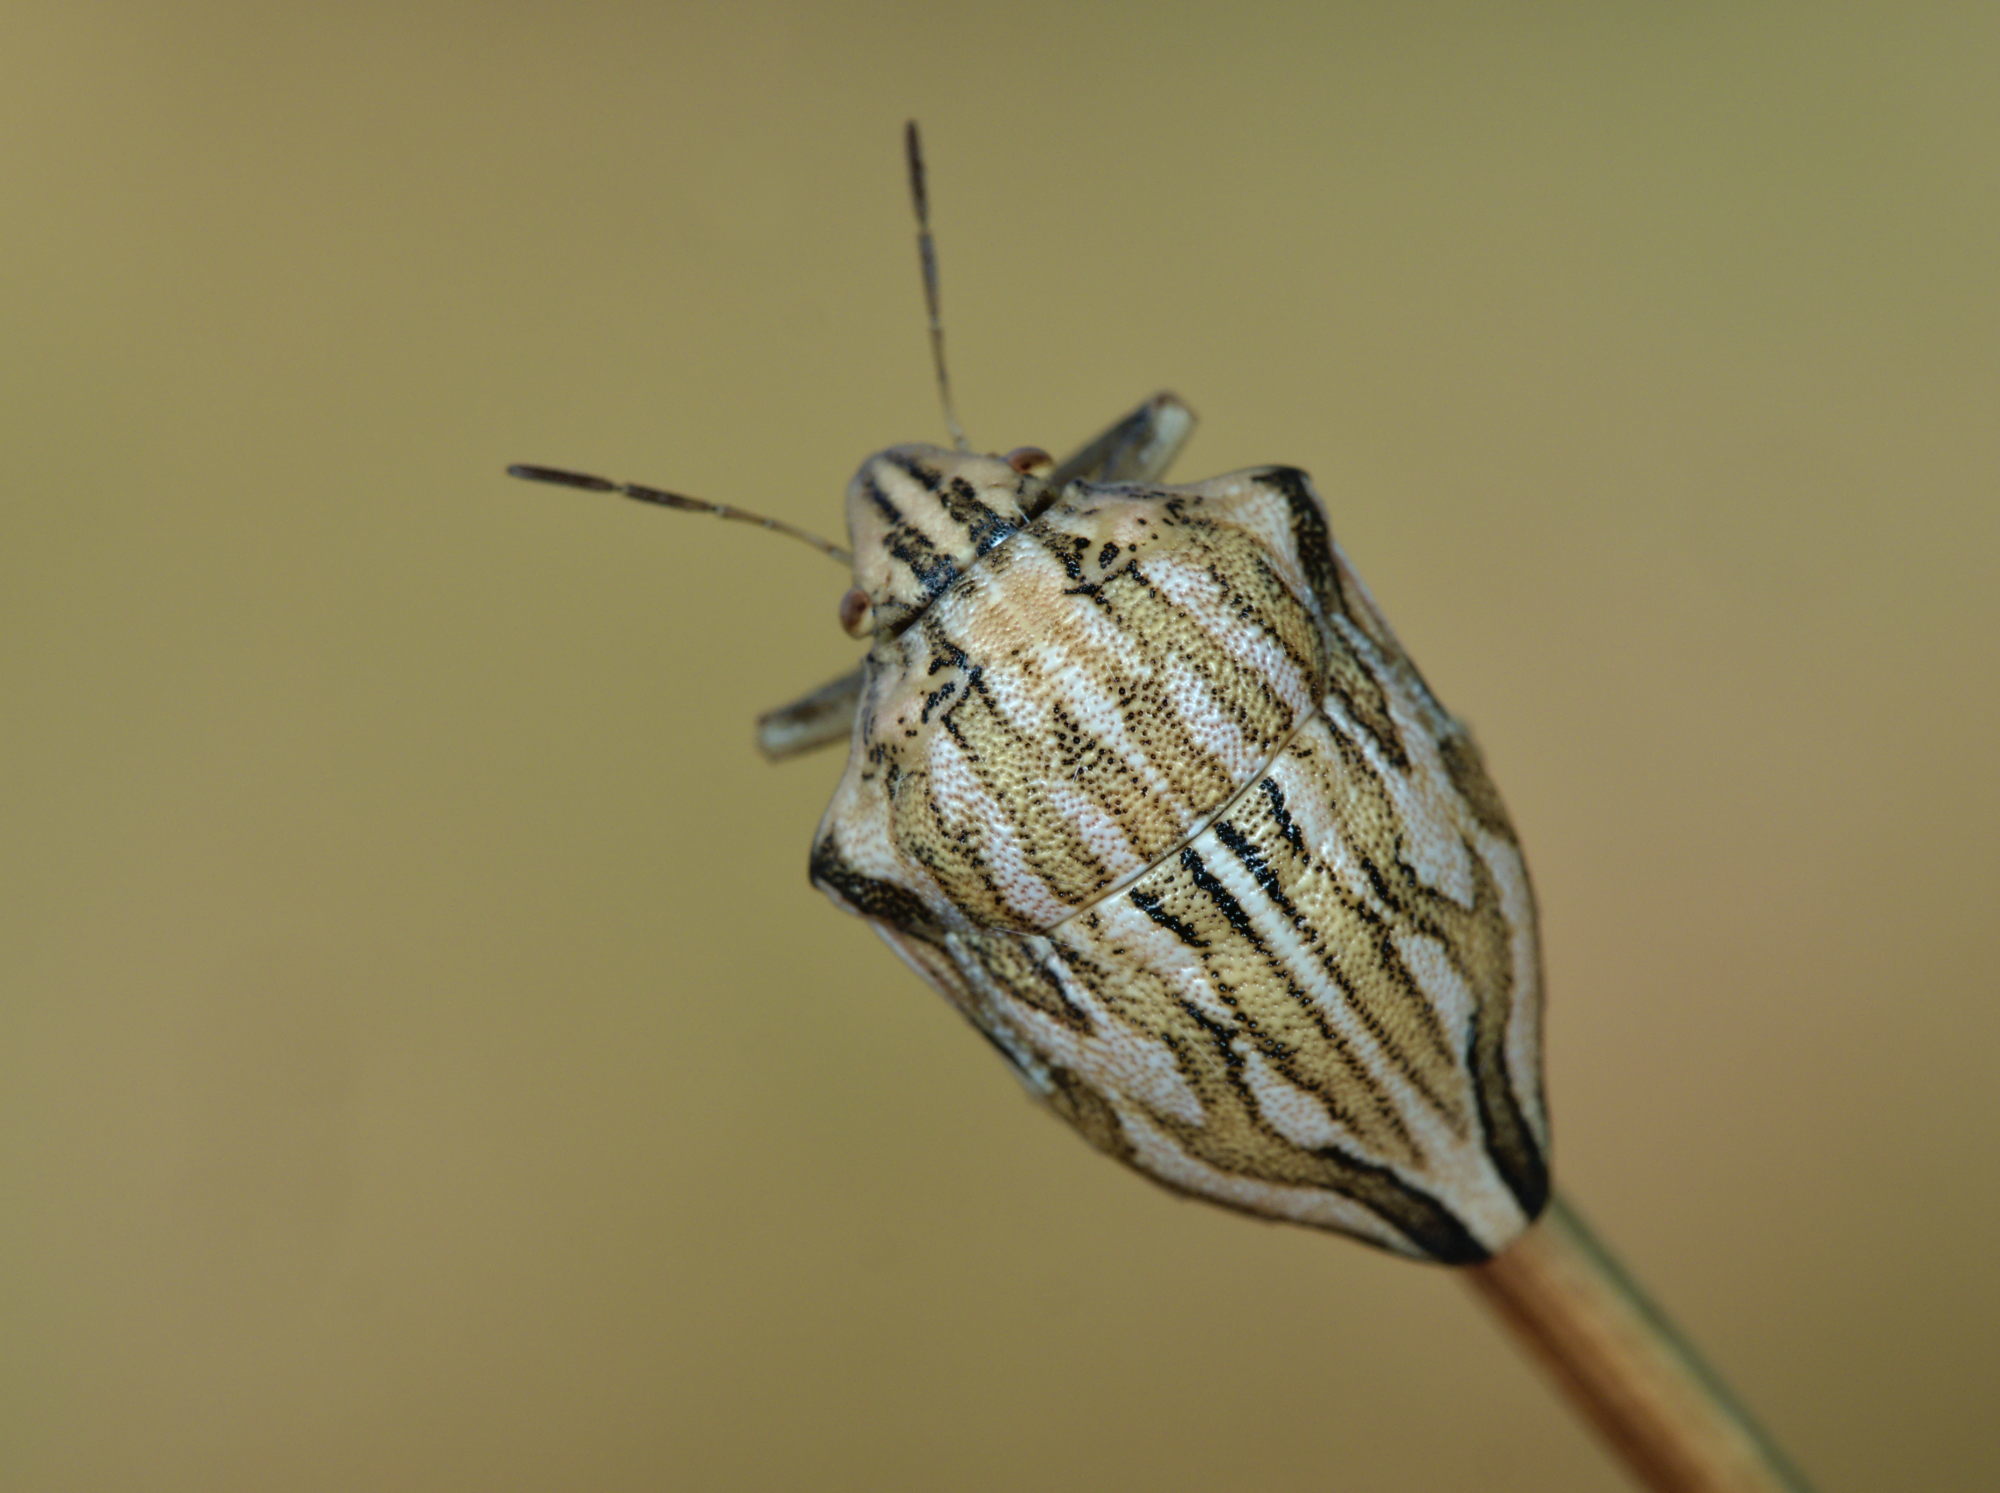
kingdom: Animalia
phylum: Arthropoda
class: Insecta
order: Hemiptera
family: Scutelleridae
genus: Odontotarsus
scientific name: Odontotarsus robustus
